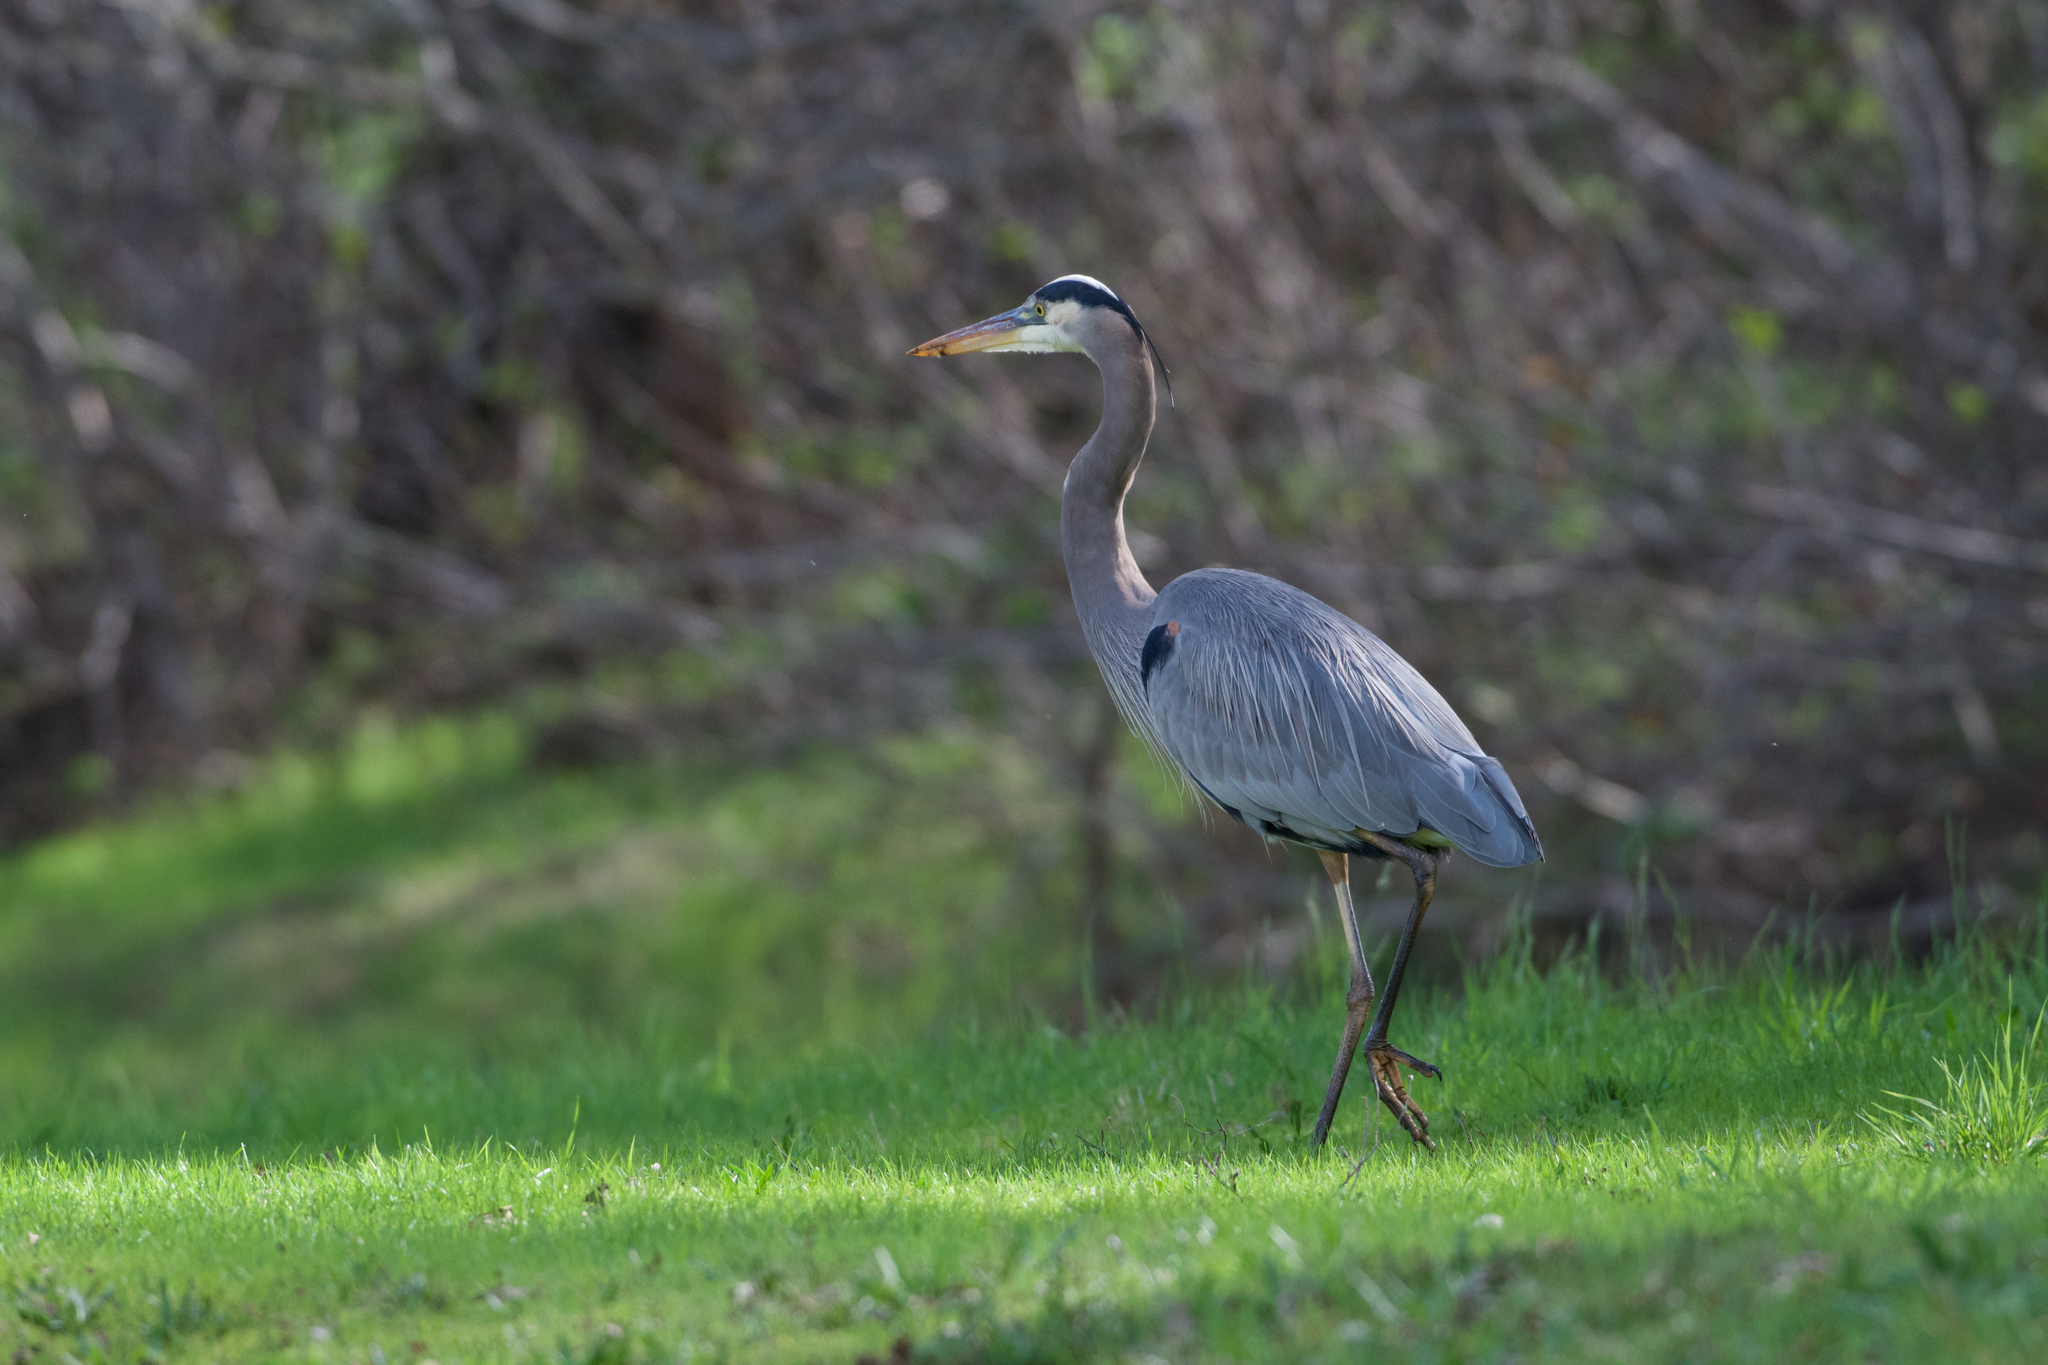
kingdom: Animalia
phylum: Chordata
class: Aves
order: Pelecaniformes
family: Ardeidae
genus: Ardea
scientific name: Ardea herodias
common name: Great blue heron
